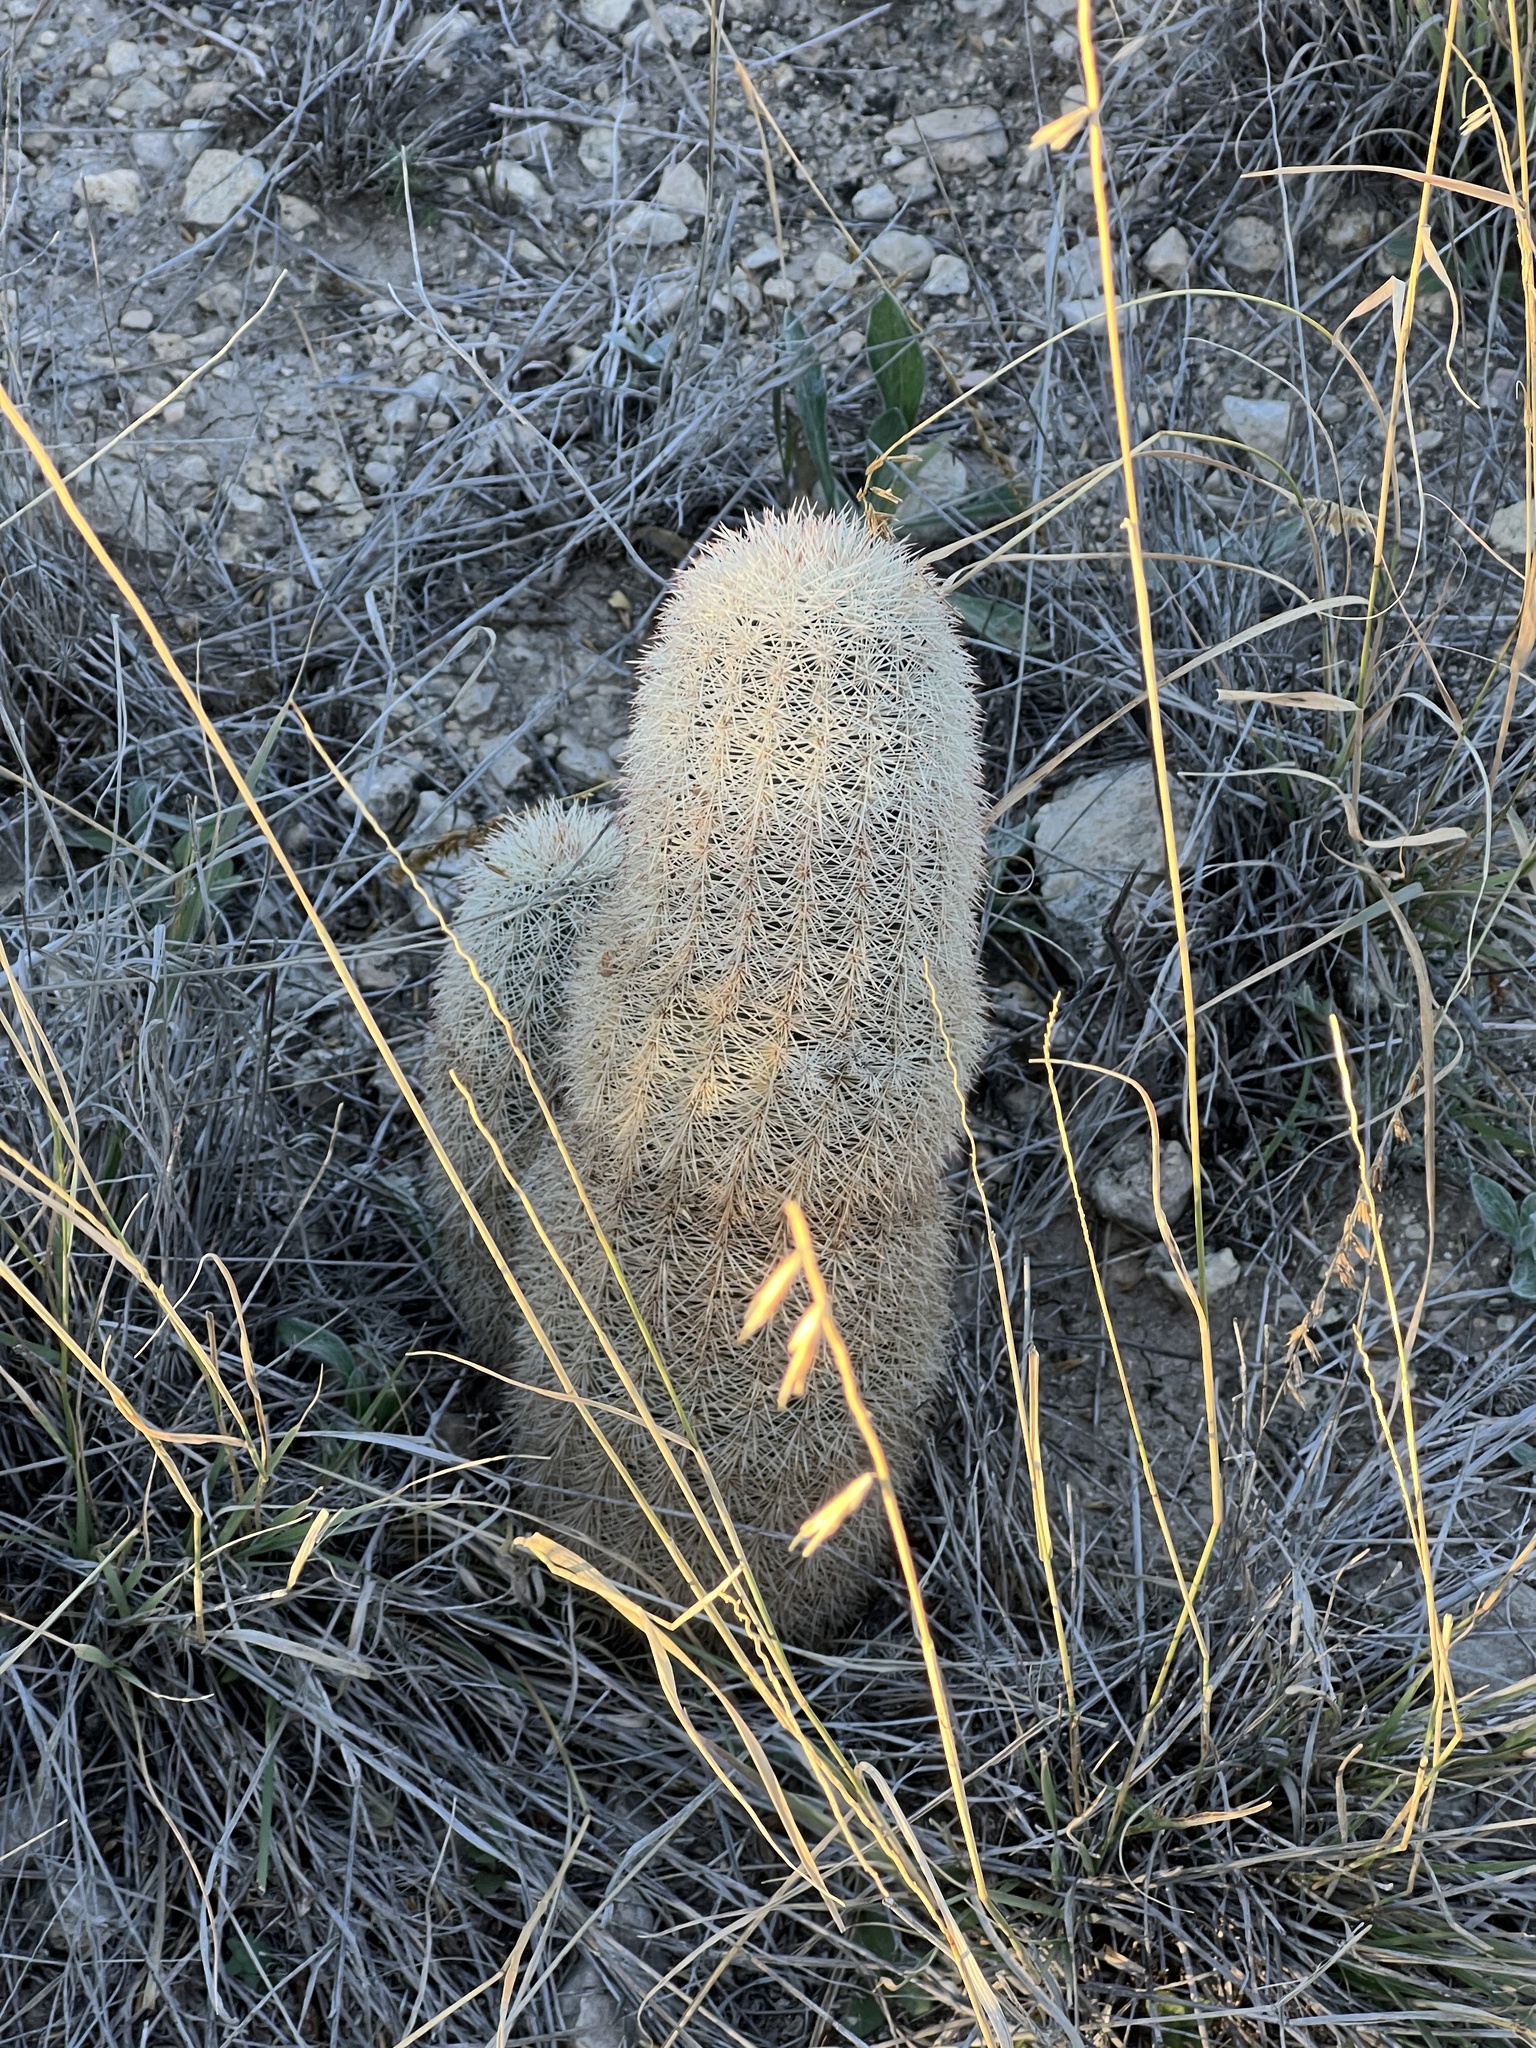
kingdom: Plantae
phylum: Tracheophyta
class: Magnoliopsida
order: Caryophyllales
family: Cactaceae
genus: Echinocereus
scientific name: Echinocereus dasyacanthus
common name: Spiny hedgehog cactus
